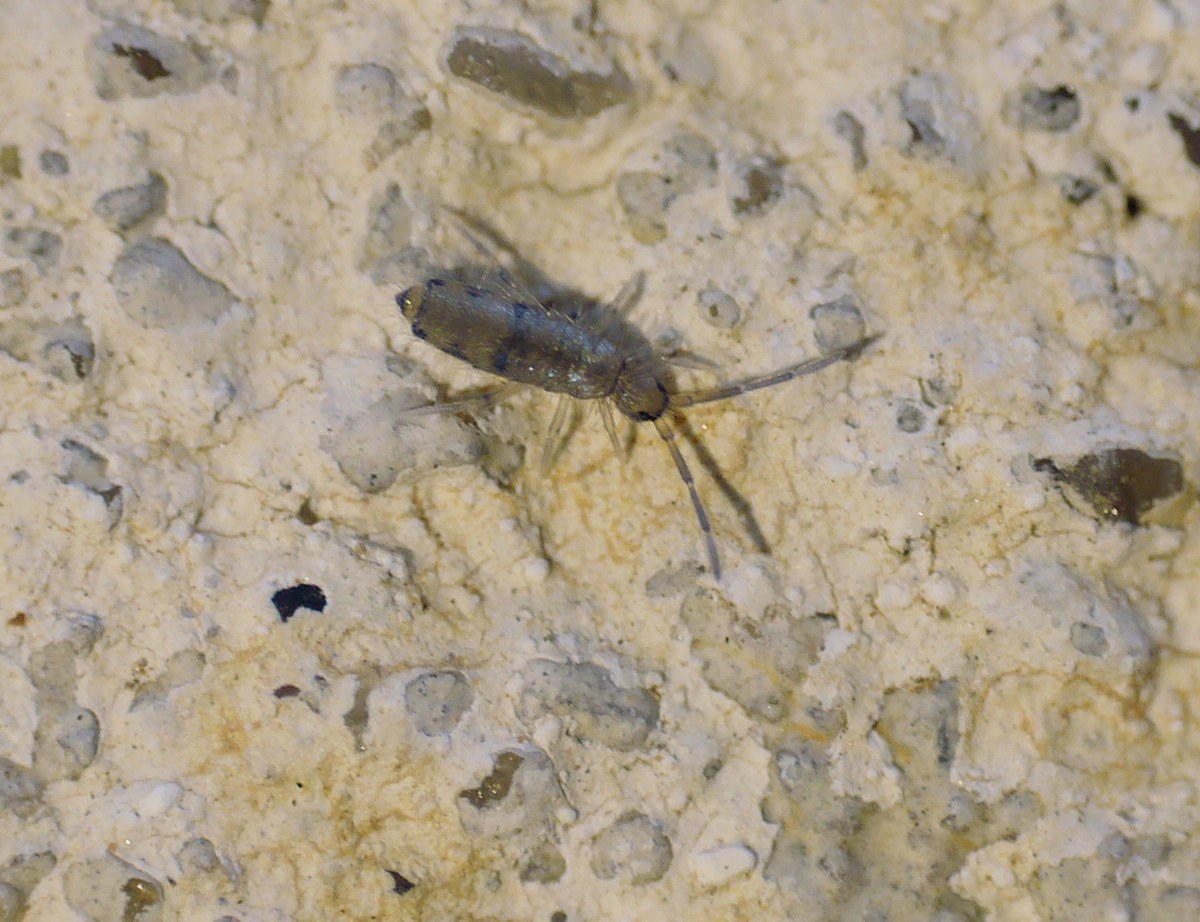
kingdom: Animalia
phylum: Arthropoda
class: Collembola
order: Entomobryomorpha
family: Entomobryidae
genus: Willowsia
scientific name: Willowsia nigromaculata
